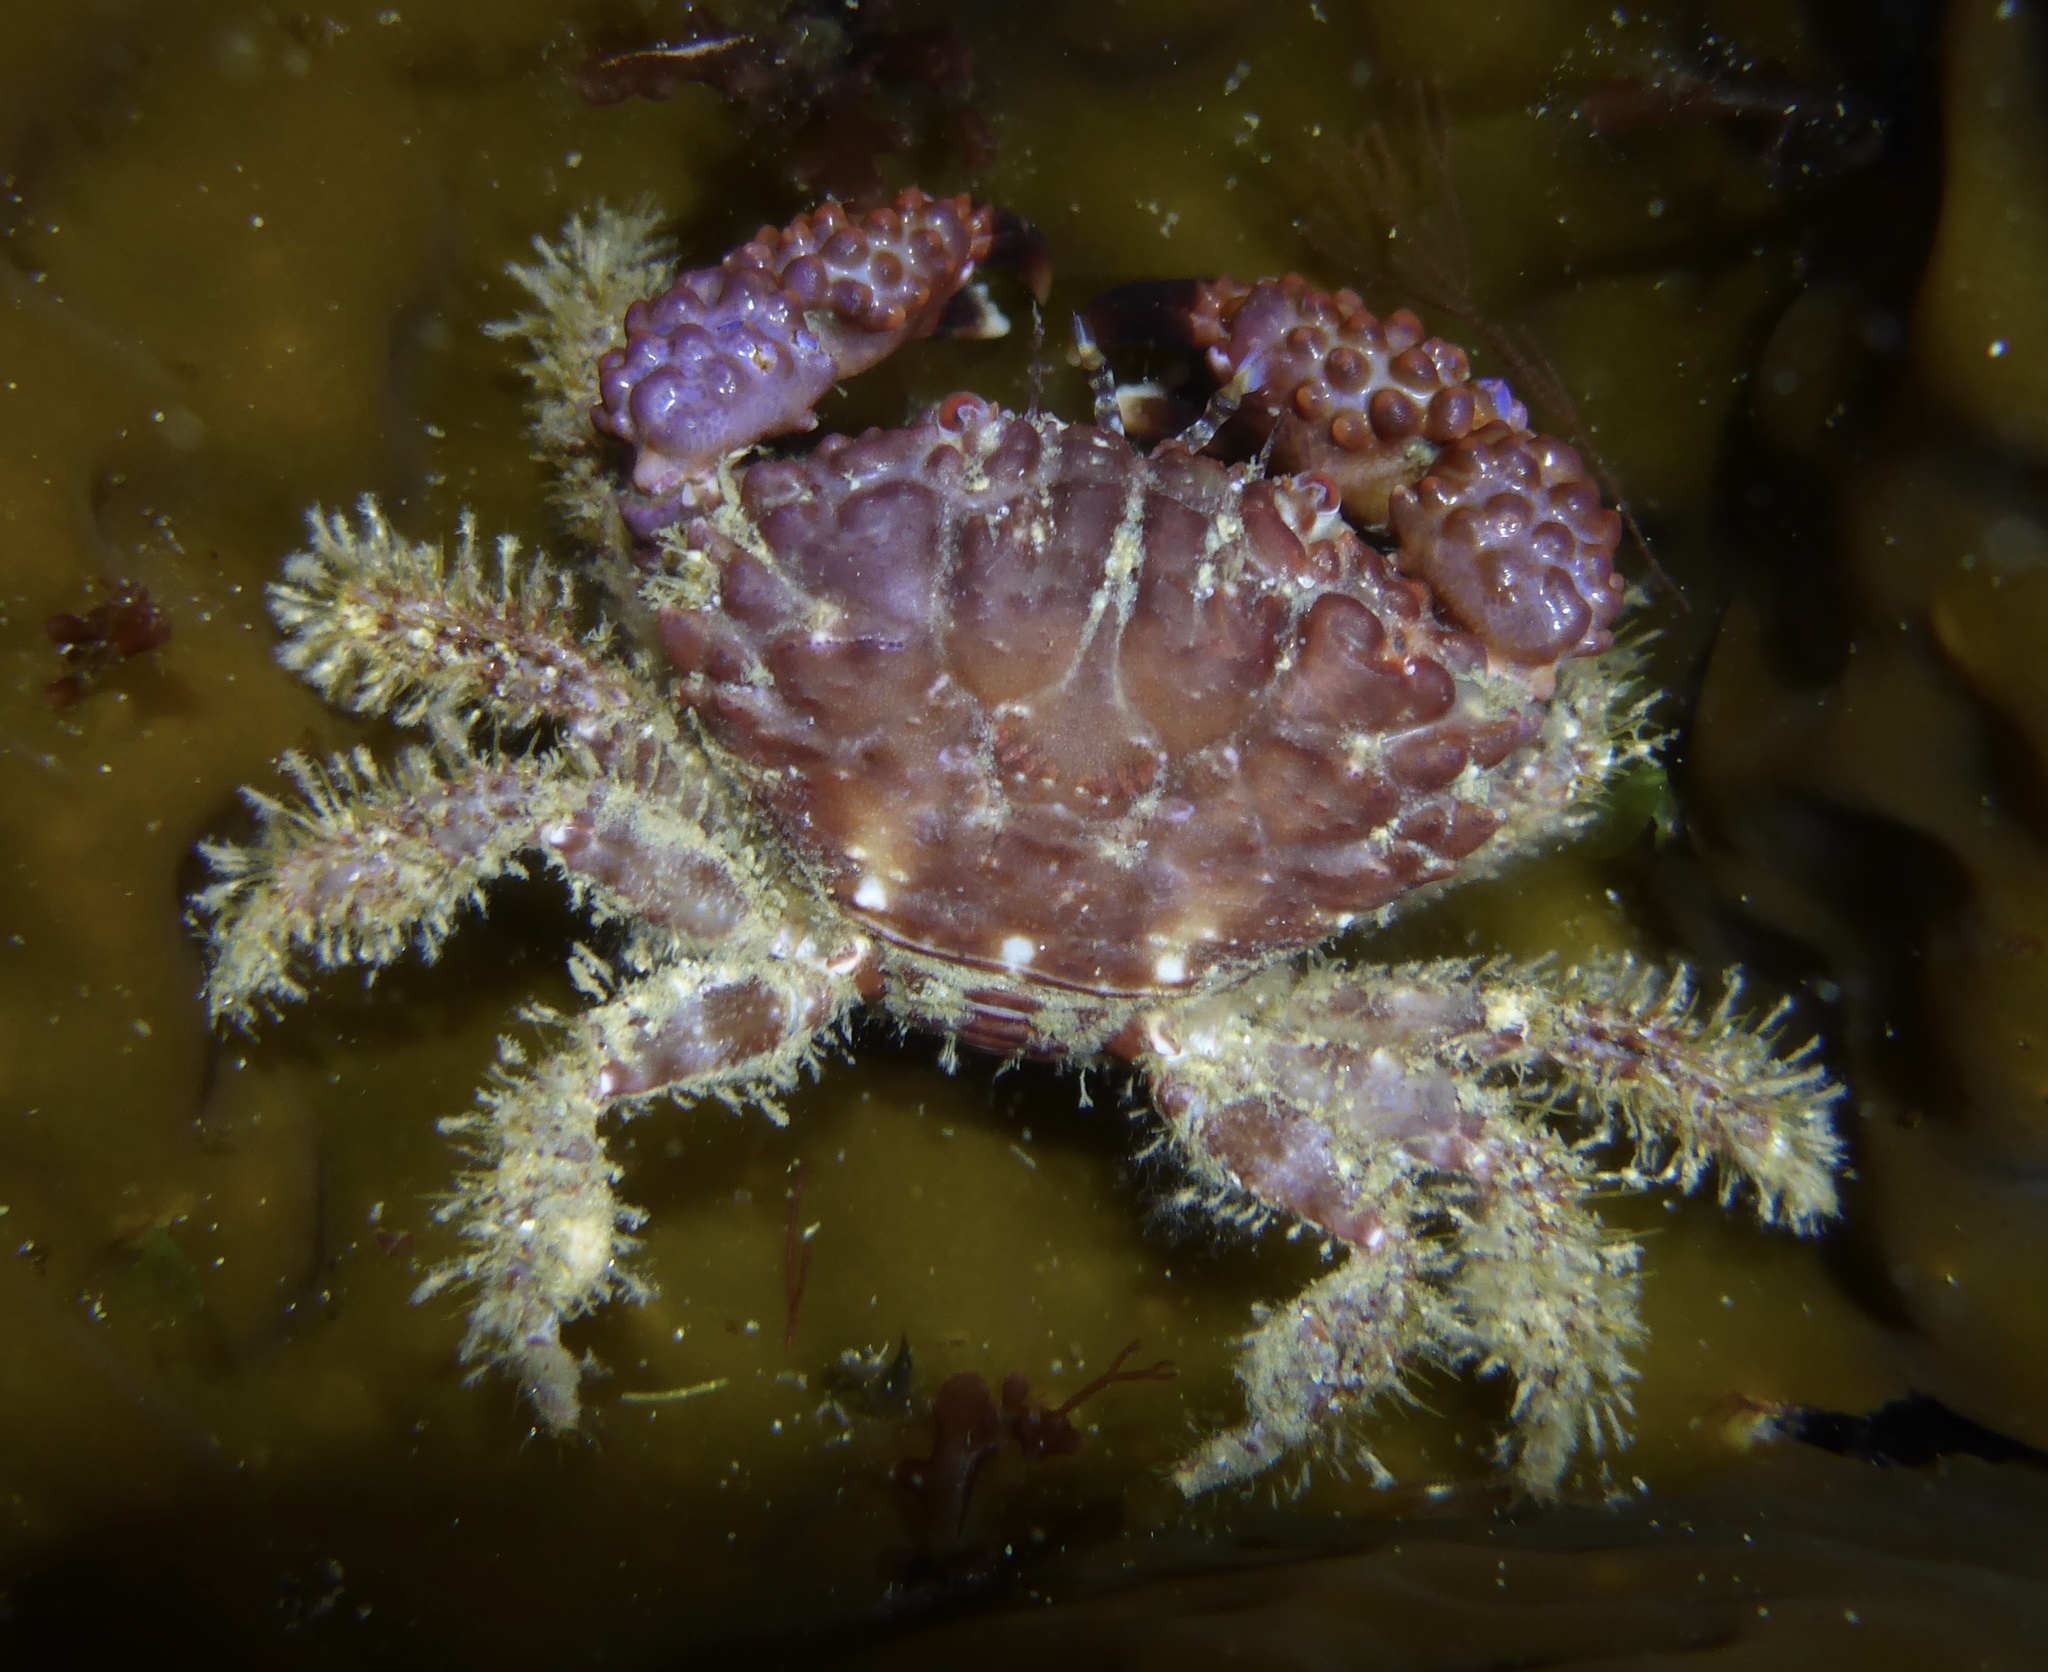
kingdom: Animalia
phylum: Arthropoda
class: Malacostraca
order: Decapoda
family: Xanthidae
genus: Paraxanthias
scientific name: Paraxanthias taylori
